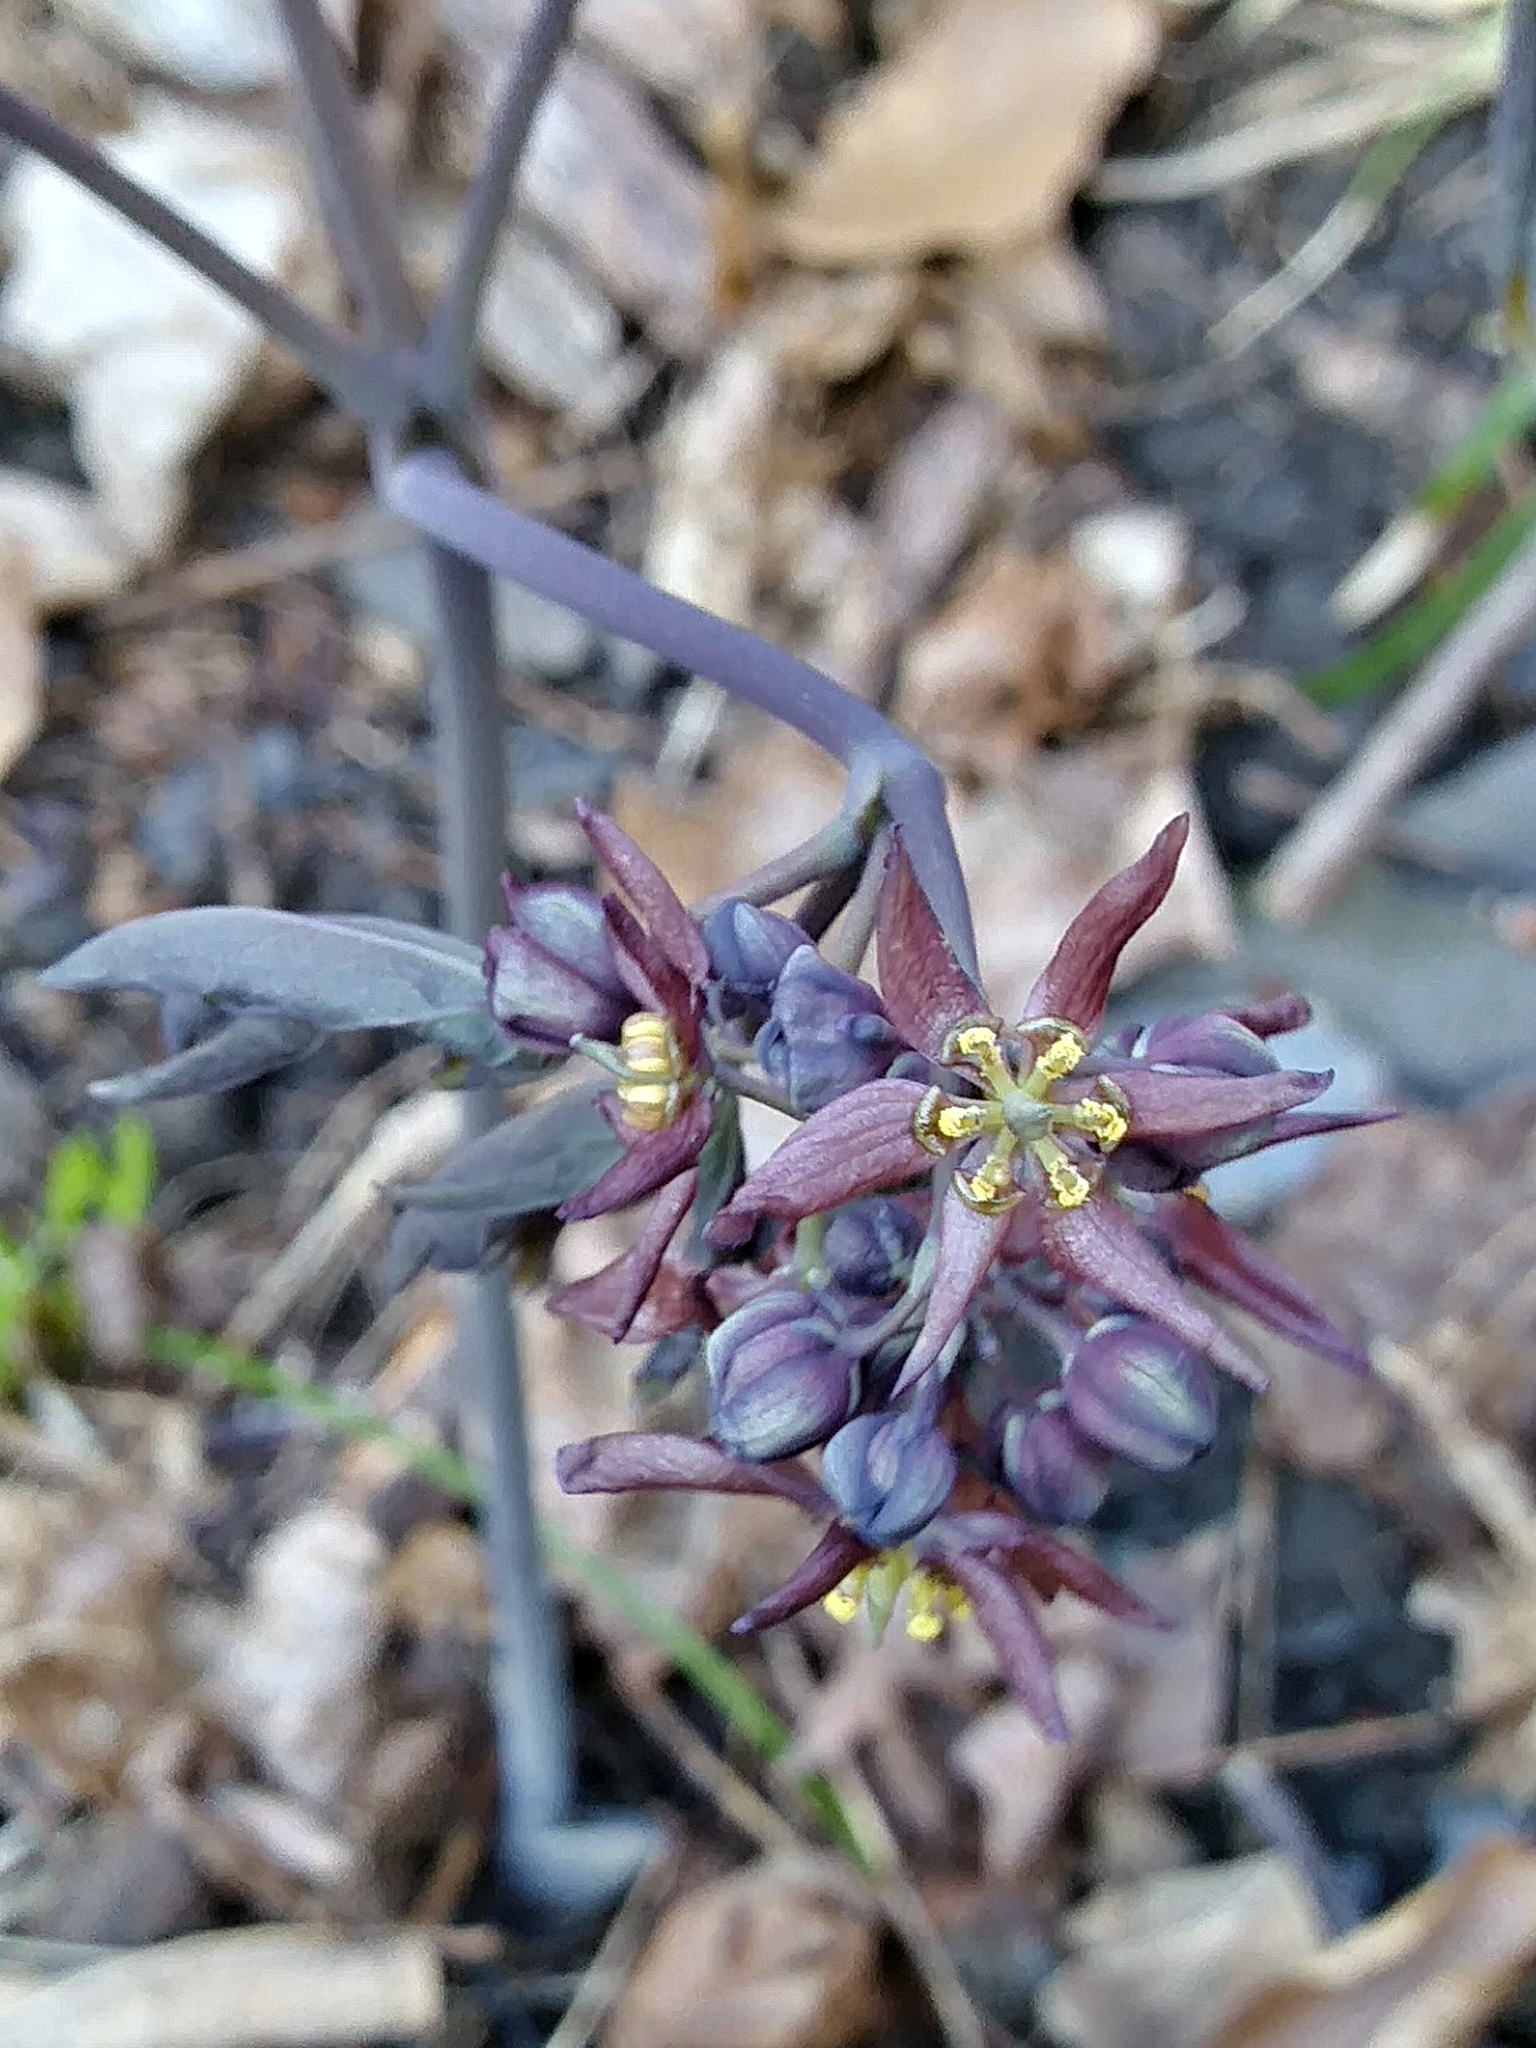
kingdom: Plantae
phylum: Tracheophyta
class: Magnoliopsida
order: Ranunculales
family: Berberidaceae
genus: Caulophyllum
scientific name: Caulophyllum giganteum
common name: Blue cohosh
